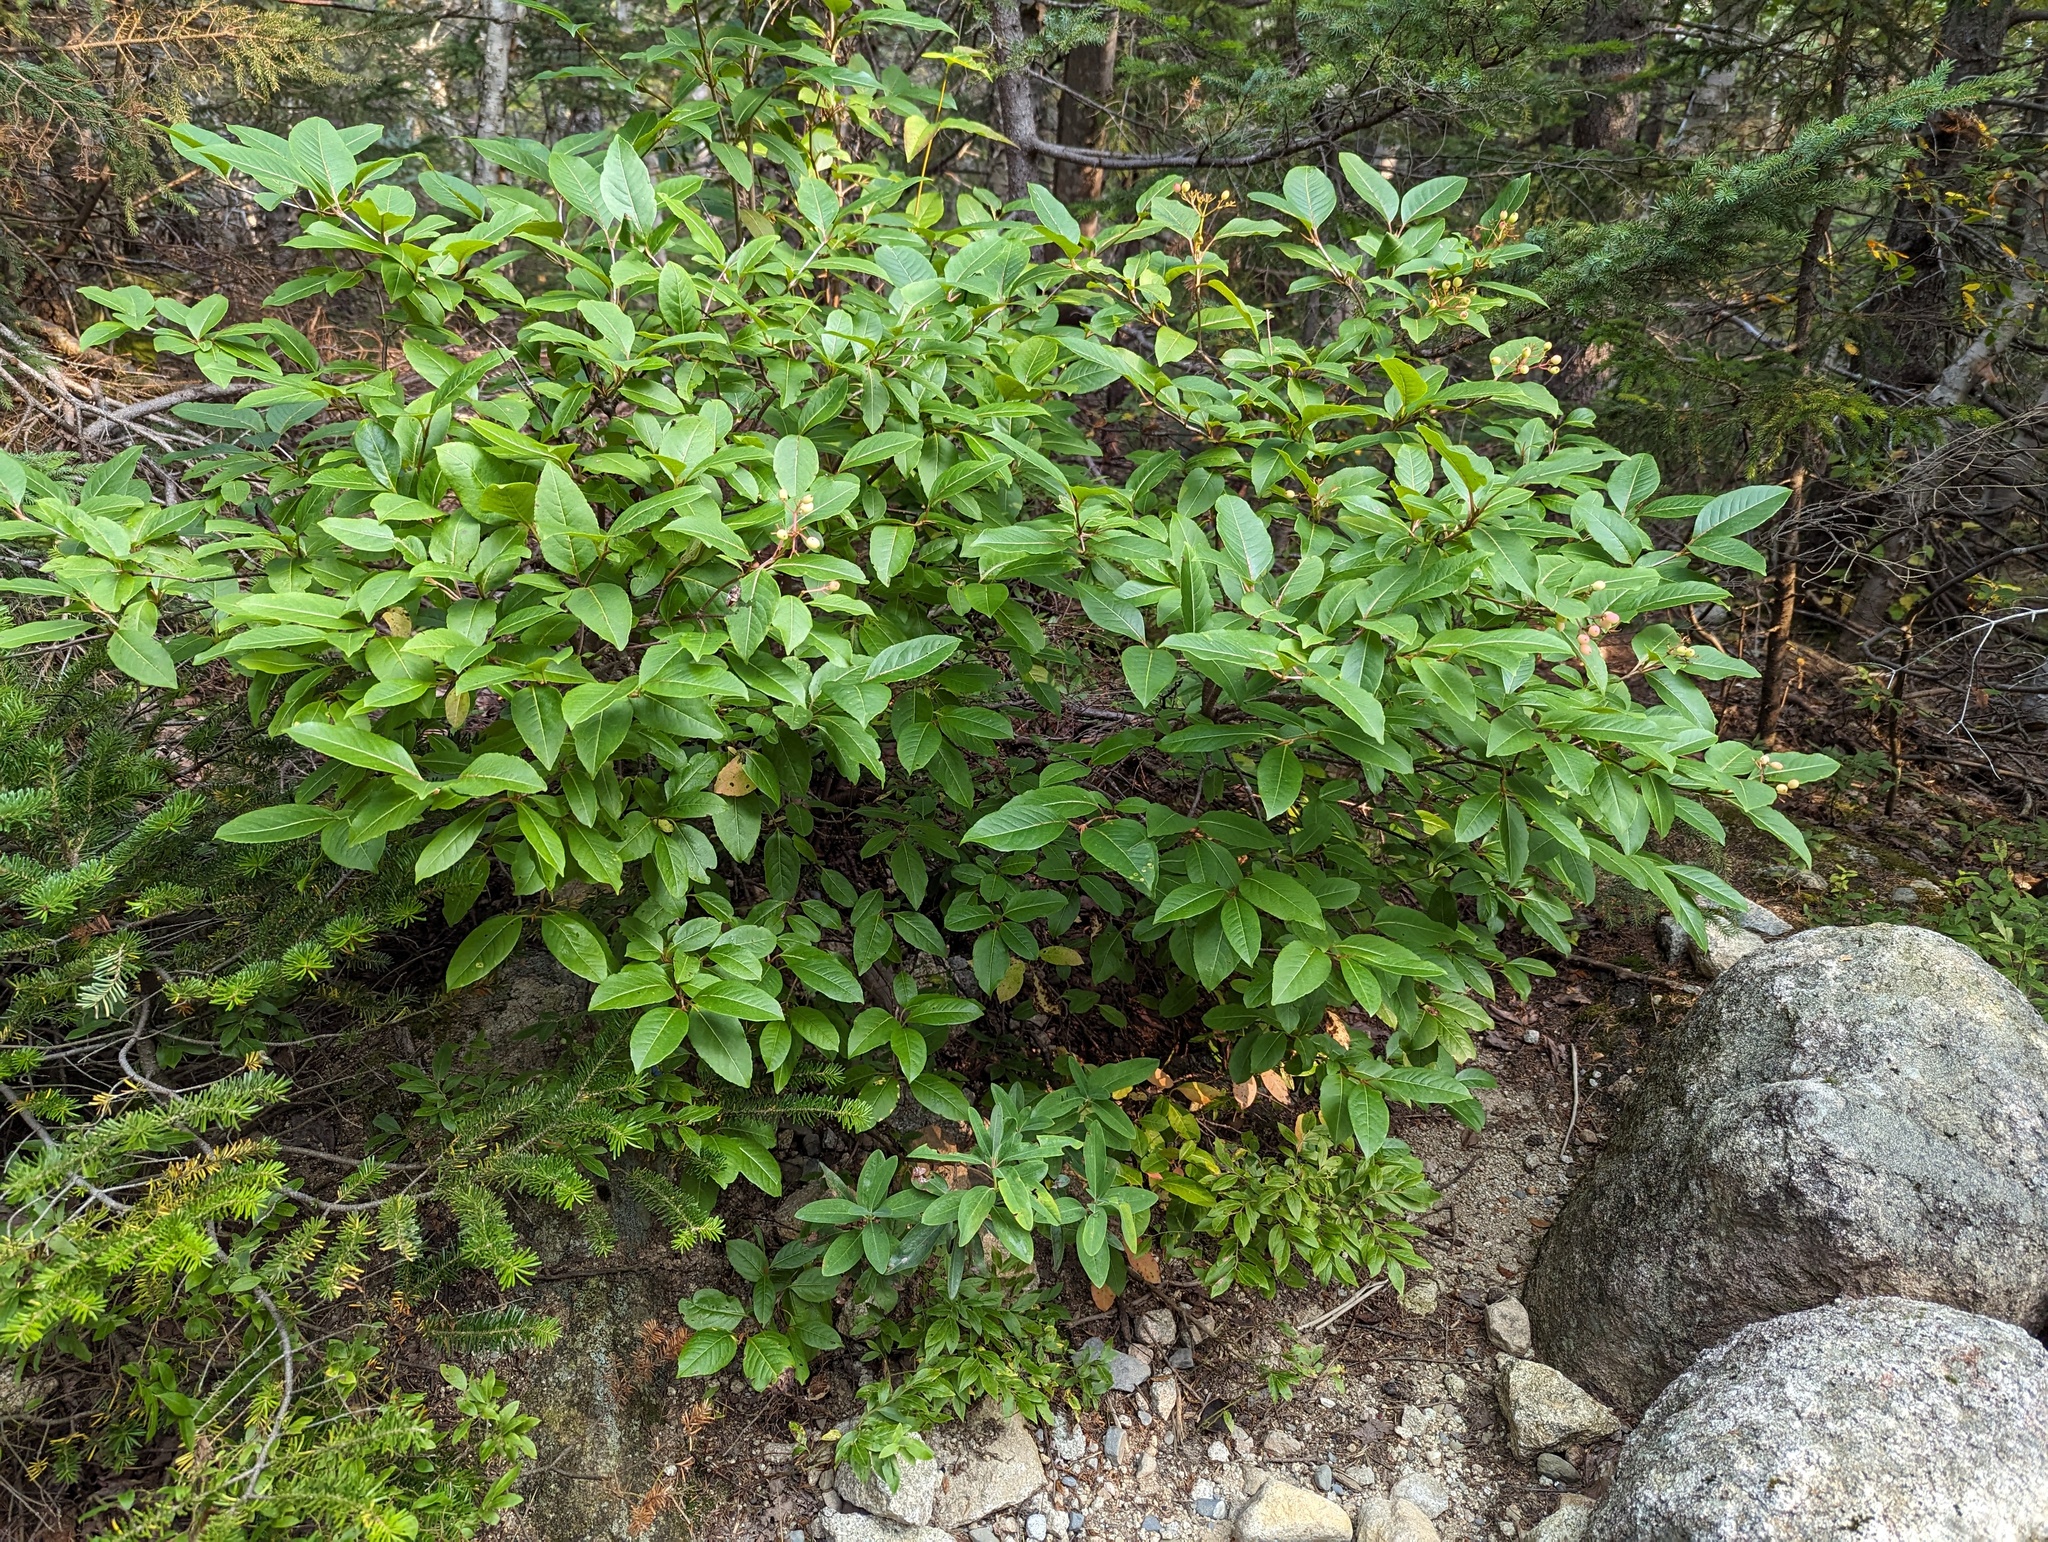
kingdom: Plantae
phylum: Tracheophyta
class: Magnoliopsida
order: Ericales
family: Ericaceae
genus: Kalmia
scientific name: Kalmia angustifolia
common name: Sheep-laurel
